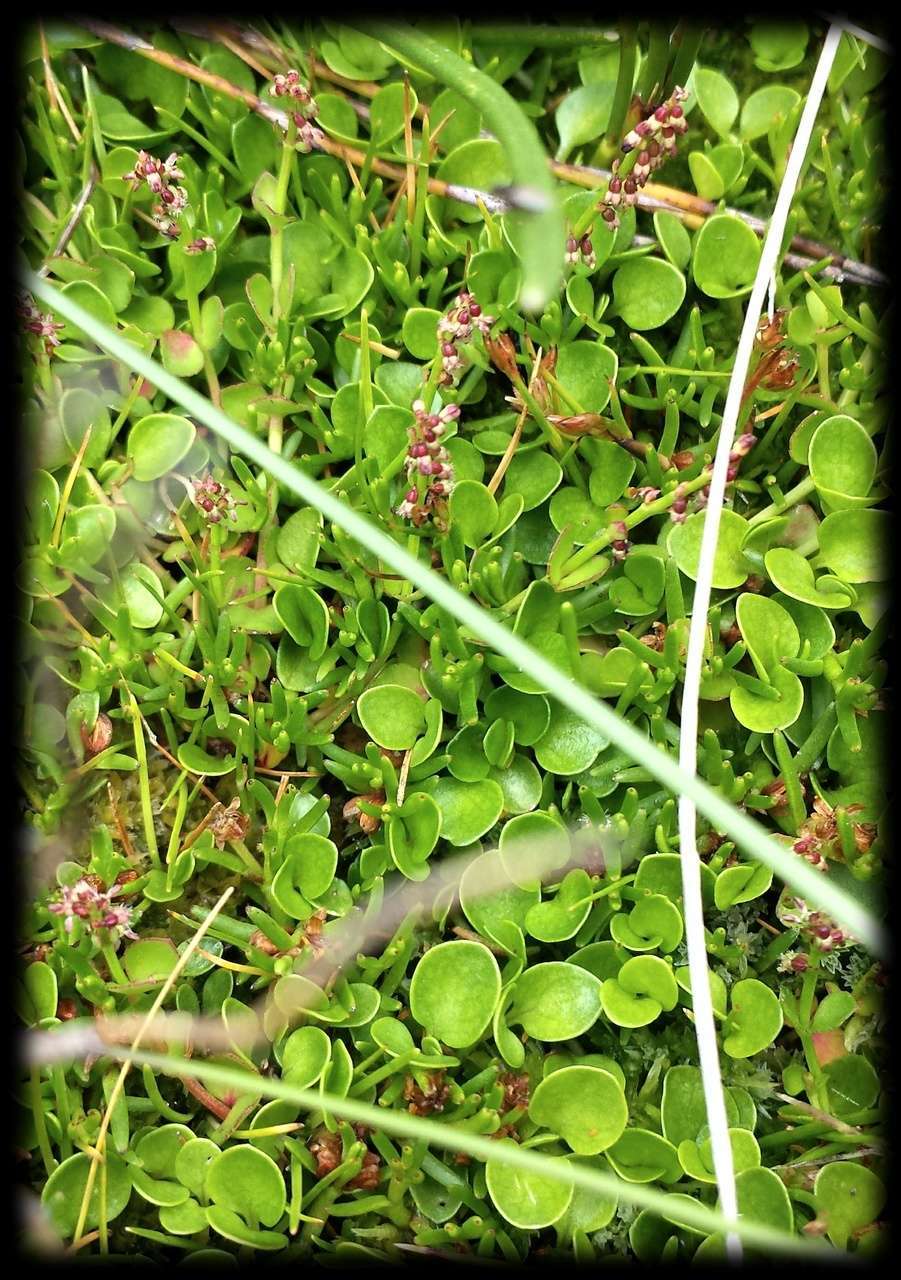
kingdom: Plantae
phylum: Tracheophyta
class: Magnoliopsida
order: Saxifragales
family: Haloragaceae
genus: Gonocarpus
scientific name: Gonocarpus micranthus
